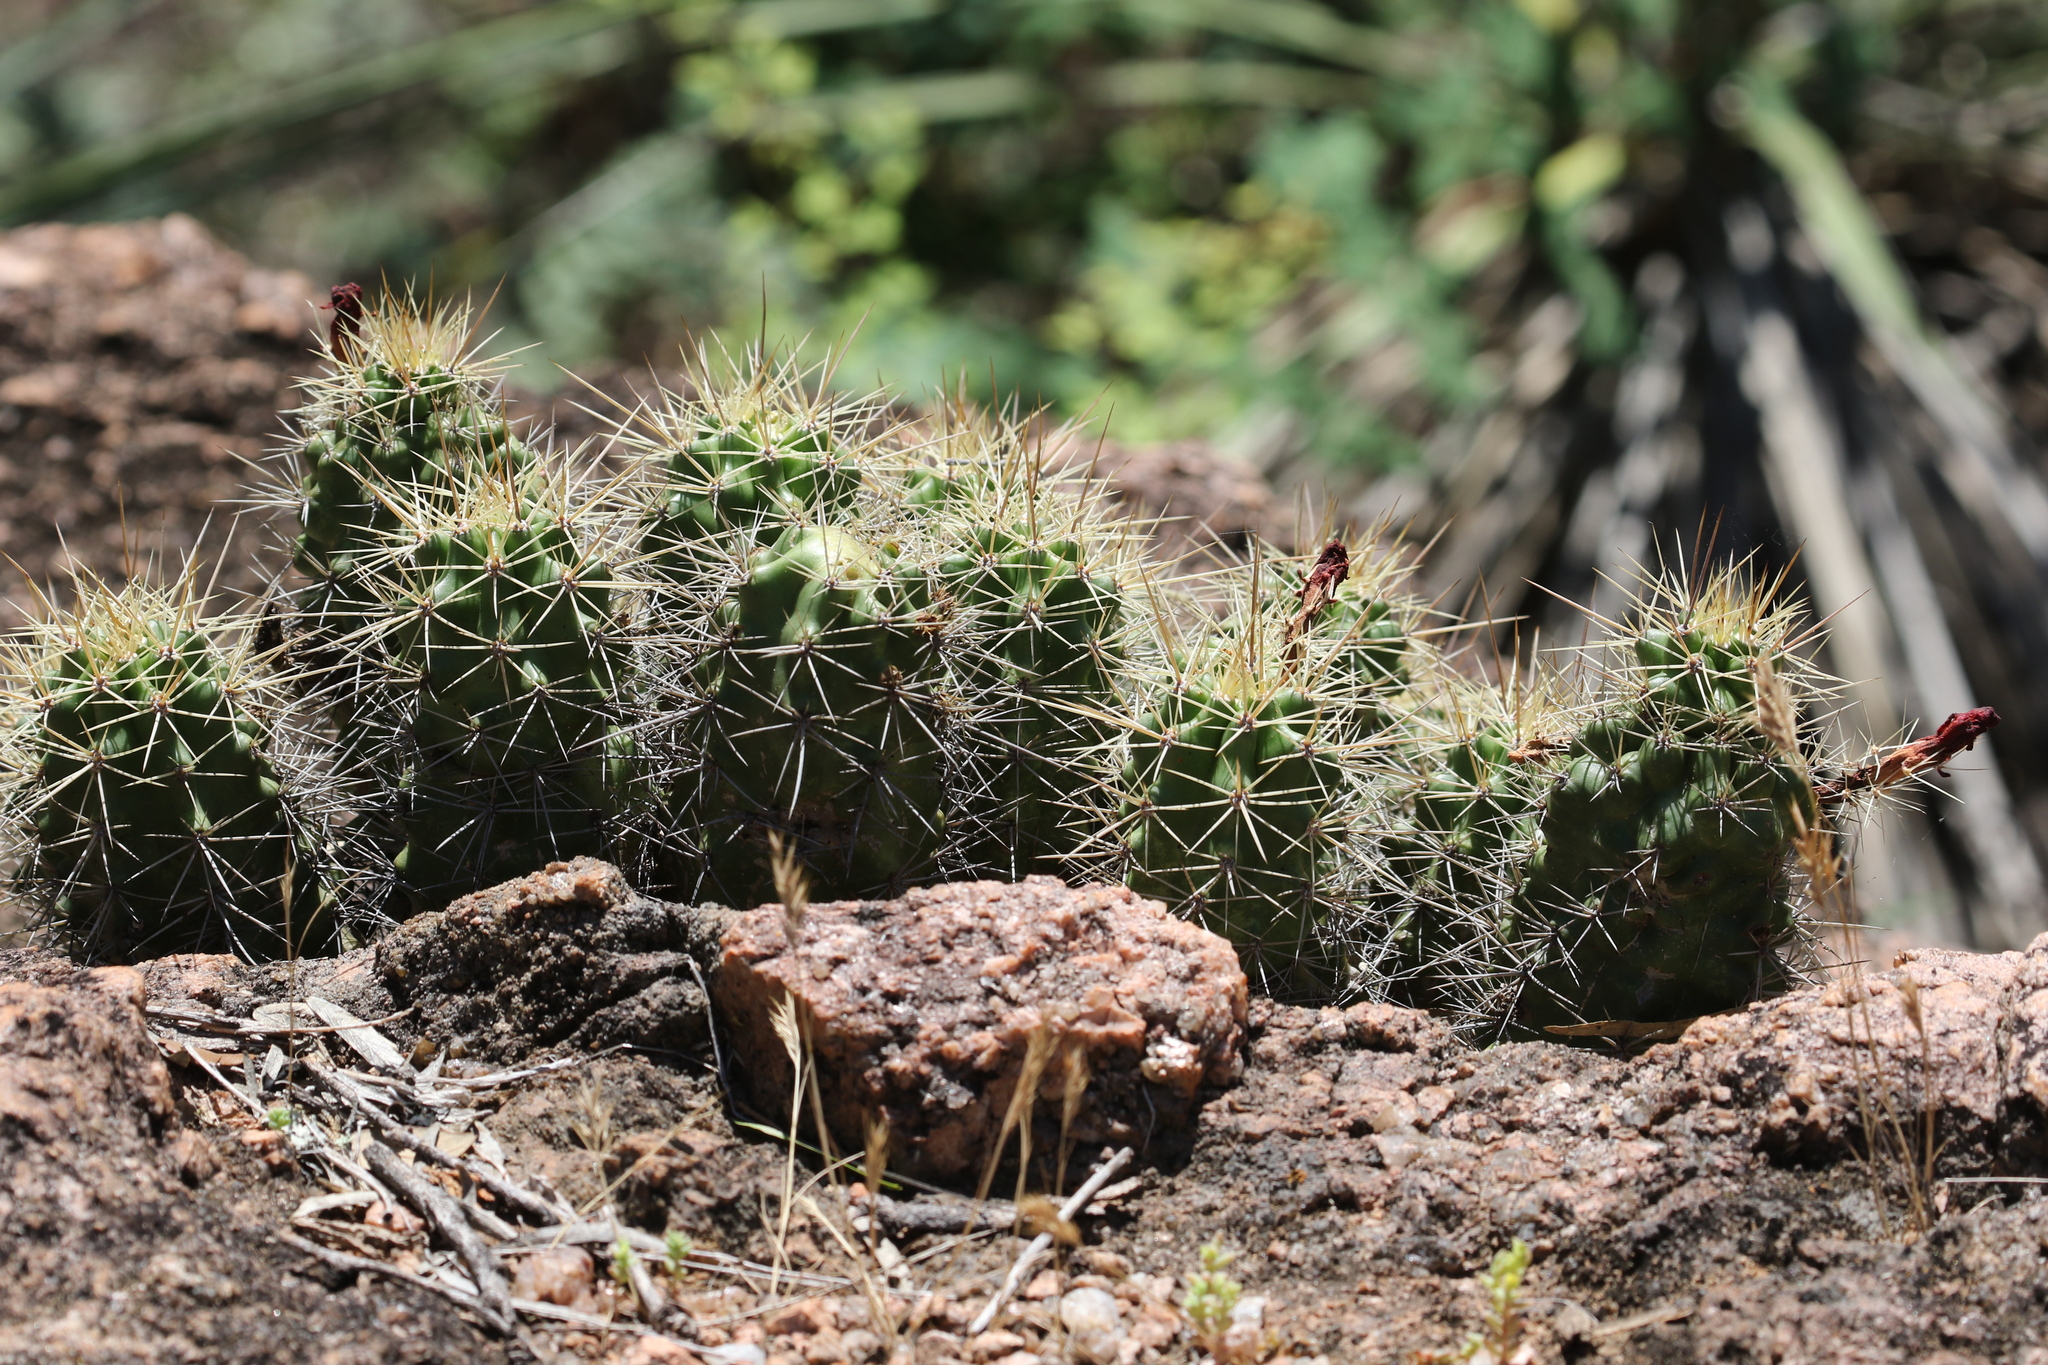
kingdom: Plantae
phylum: Tracheophyta
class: Magnoliopsida
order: Caryophyllales
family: Cactaceae
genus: Echinocereus
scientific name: Echinocereus coccineus
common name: Scarlet hedgehog cactus
